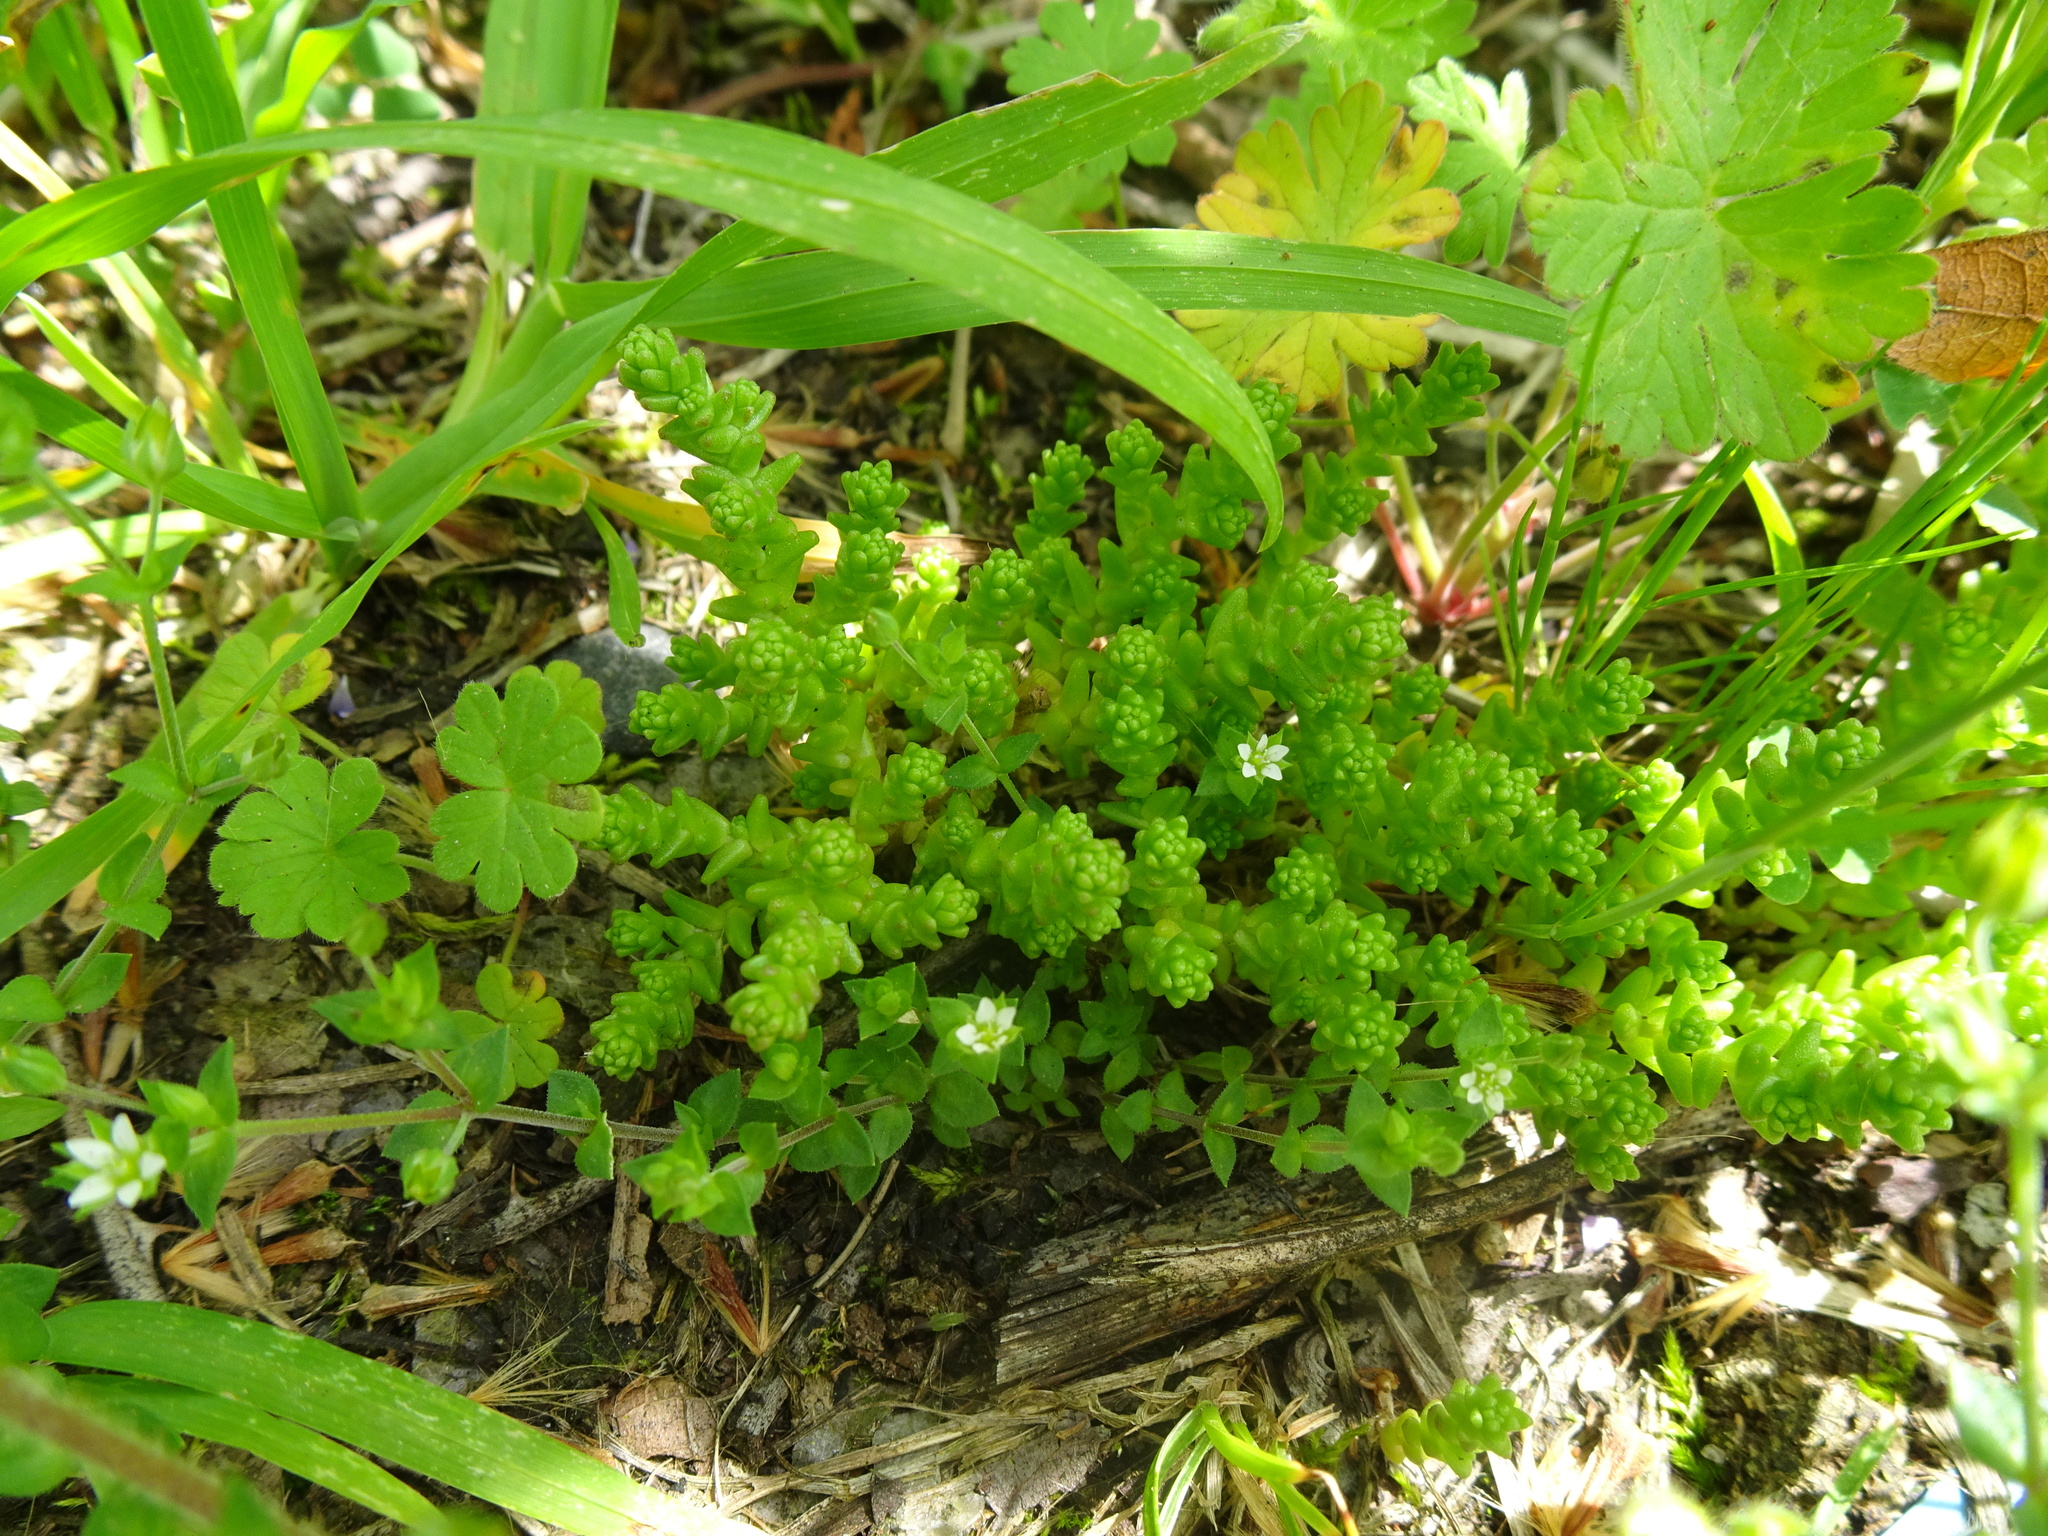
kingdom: Plantae
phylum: Tracheophyta
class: Magnoliopsida
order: Saxifragales
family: Crassulaceae
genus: Sedum
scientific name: Sedum acre
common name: Biting stonecrop
